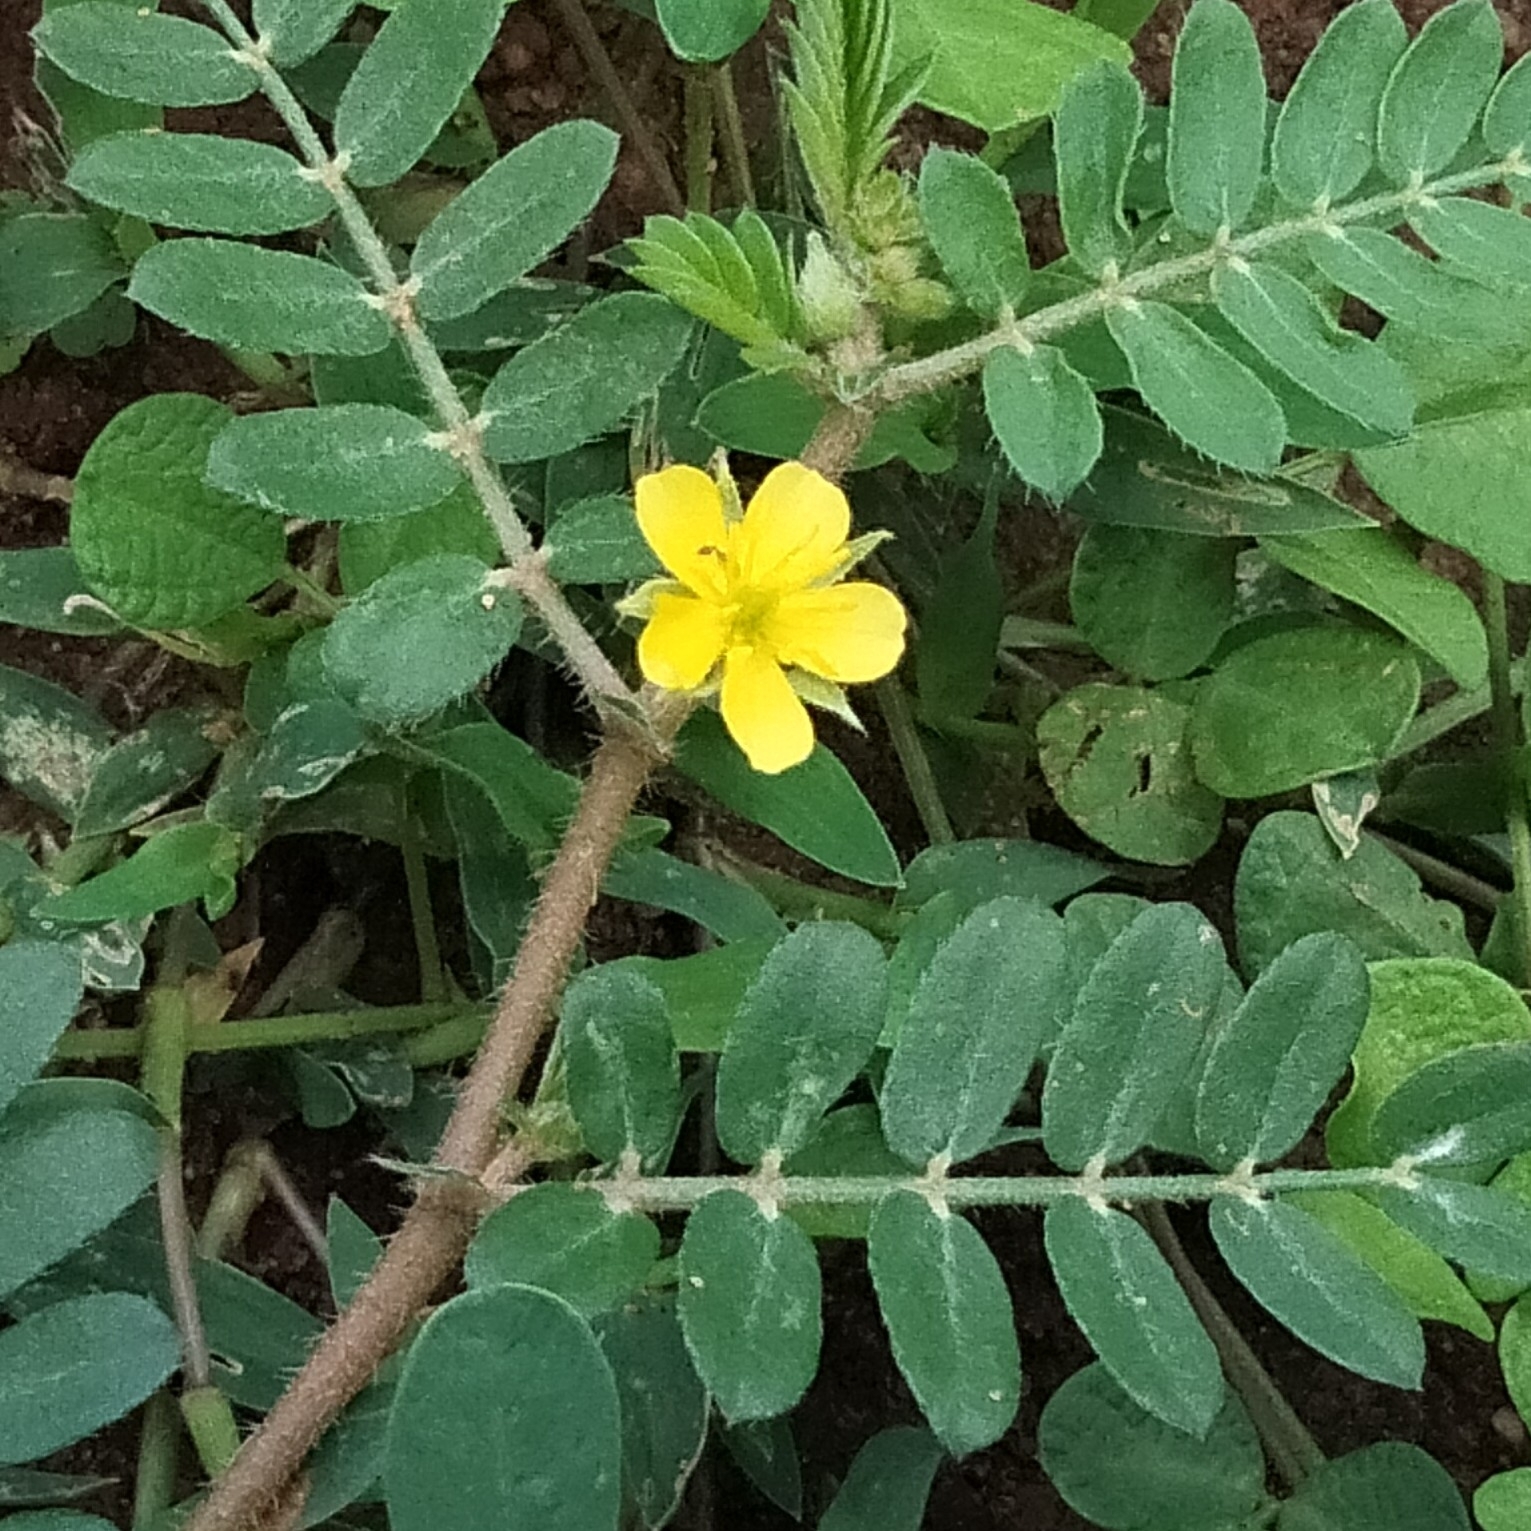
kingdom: Plantae
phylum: Tracheophyta
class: Magnoliopsida
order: Zygophyllales
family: Zygophyllaceae
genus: Tribulus
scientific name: Tribulus terrestris
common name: Puncturevine
